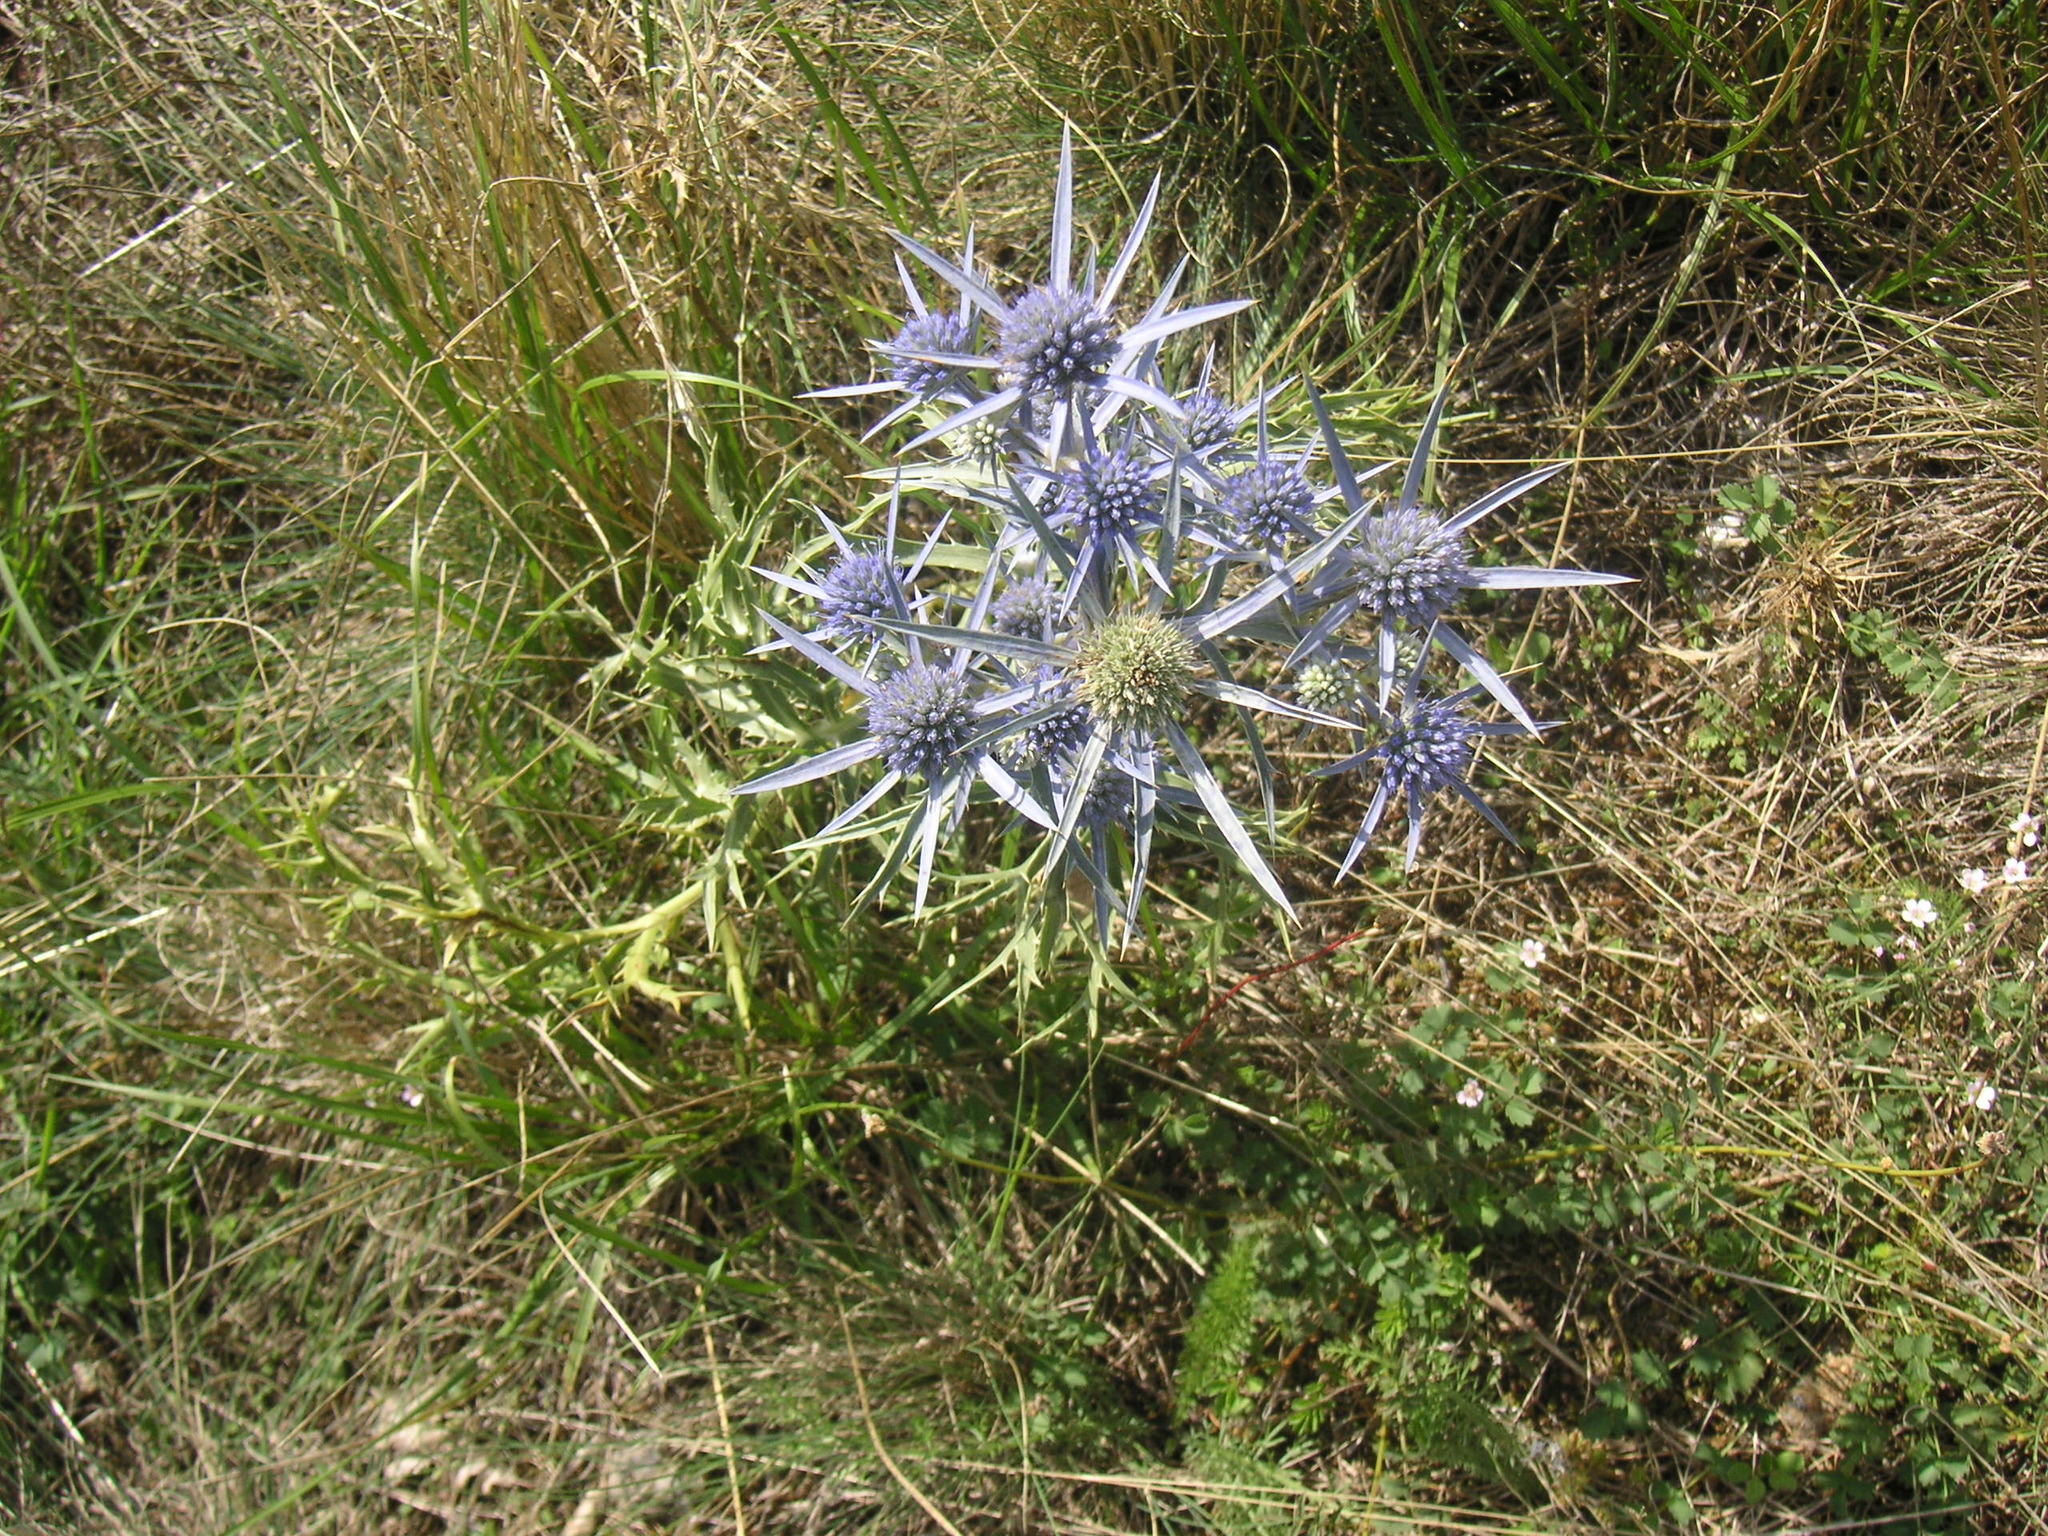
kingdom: Plantae
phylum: Tracheophyta
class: Magnoliopsida
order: Apiales
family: Apiaceae
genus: Eryngium
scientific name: Eryngium amethystinum
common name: Amethyst eryngo
